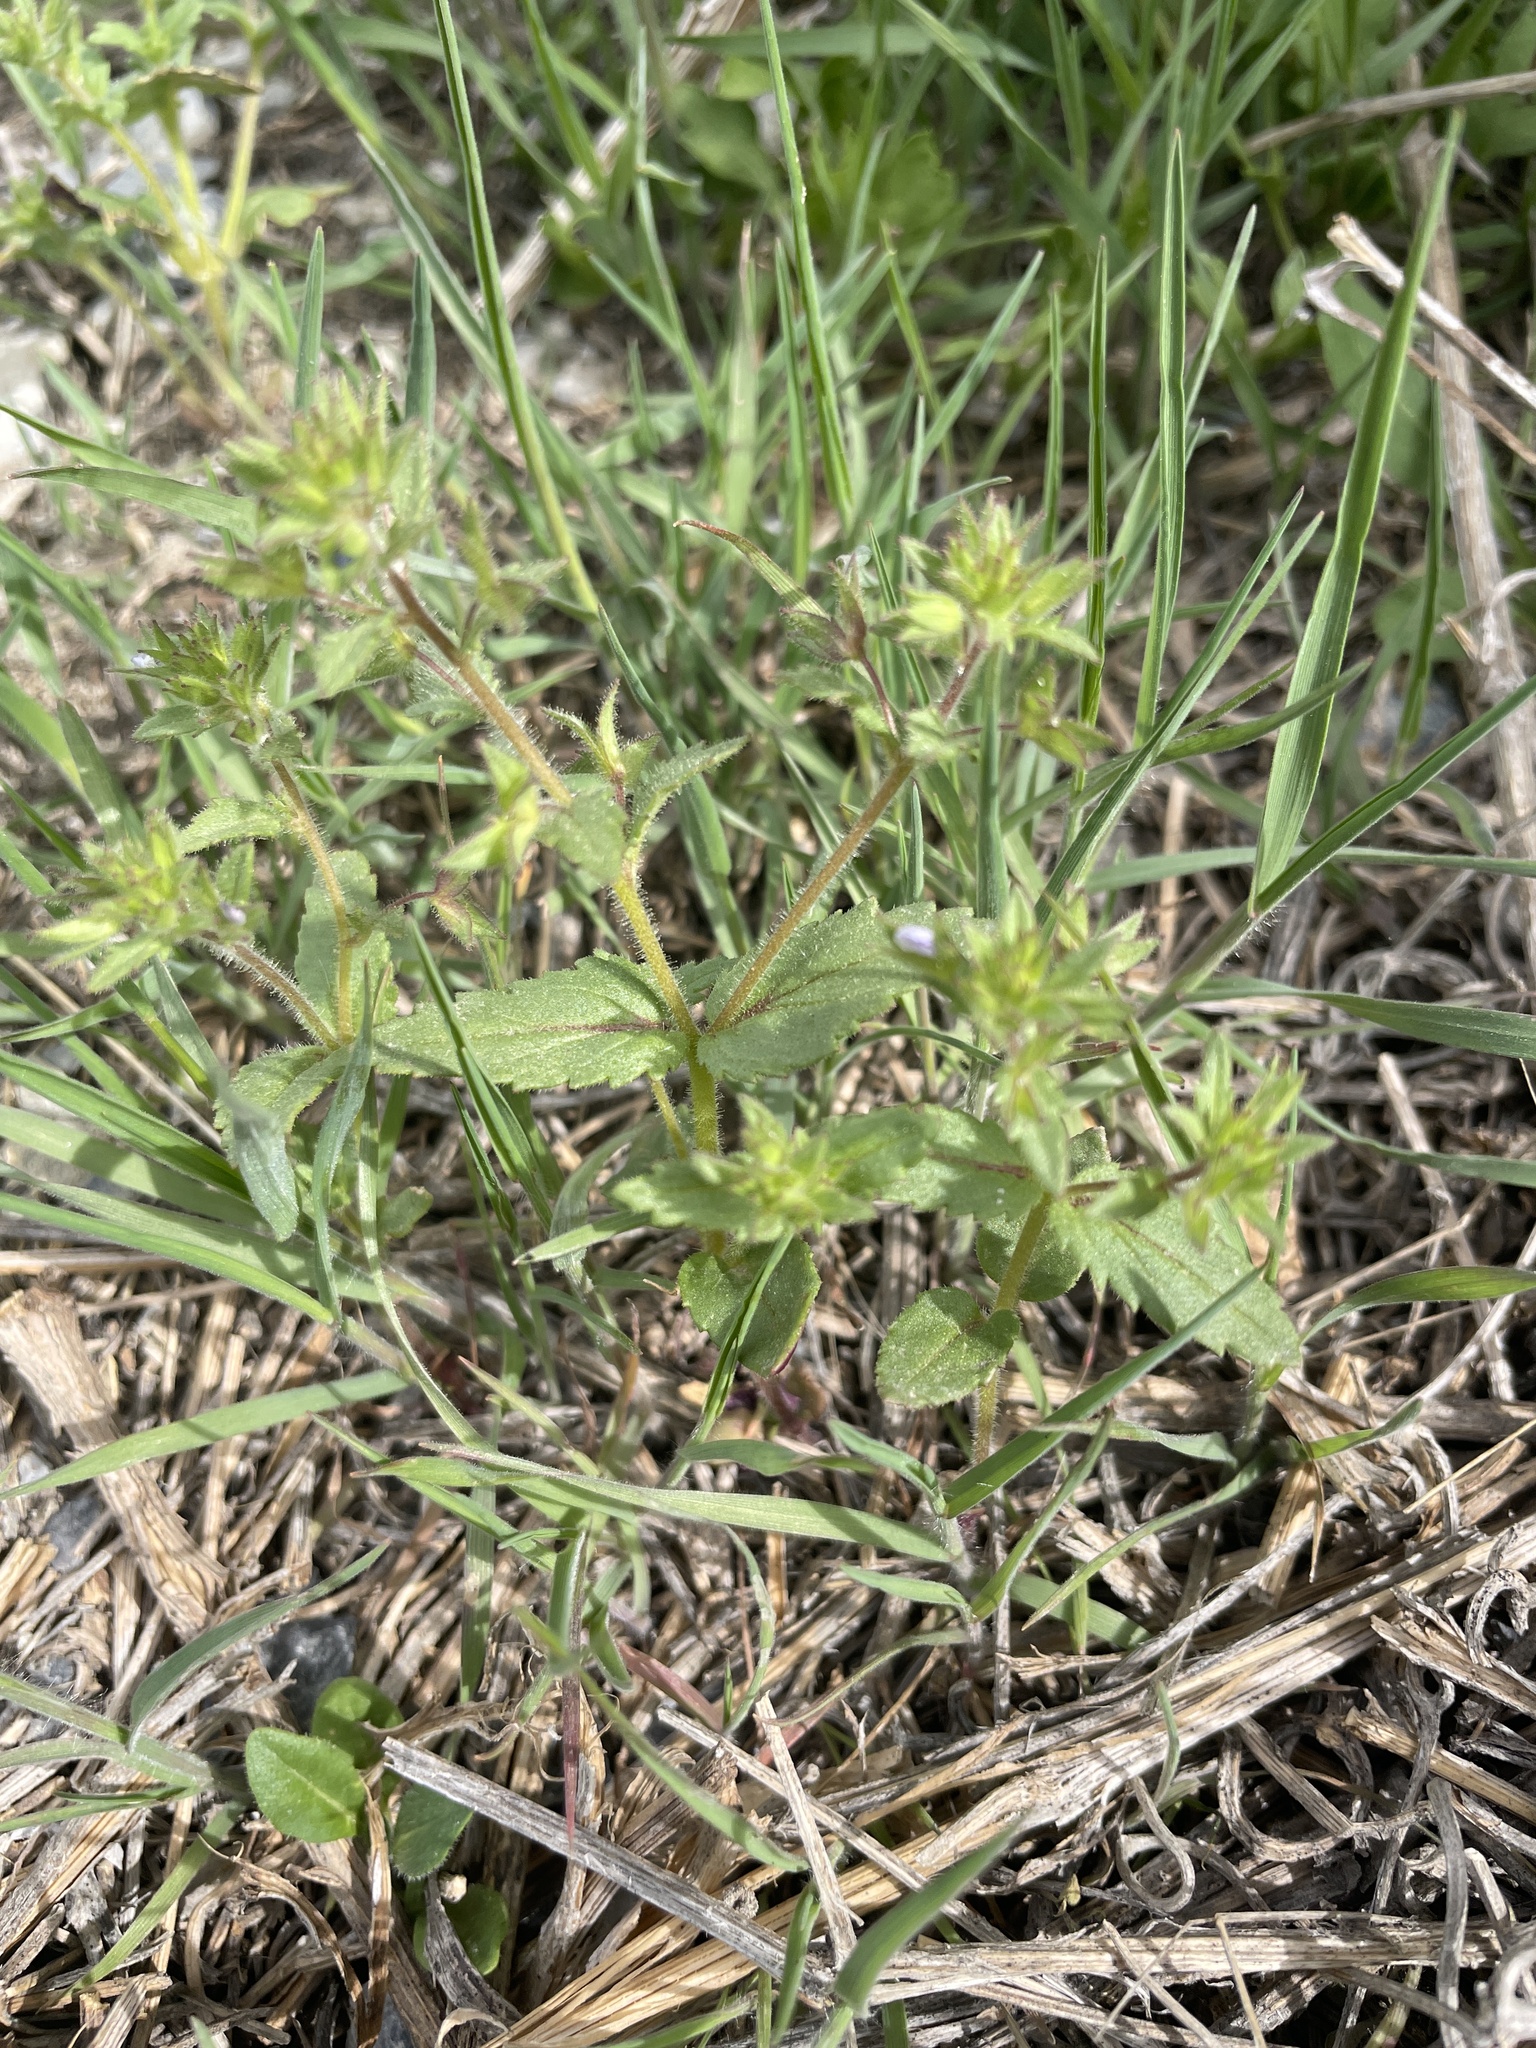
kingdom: Plantae
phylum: Tracheophyta
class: Magnoliopsida
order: Lamiales
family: Plantaginaceae
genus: Veronica
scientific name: Veronica biloba
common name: Twolobe speedwell
